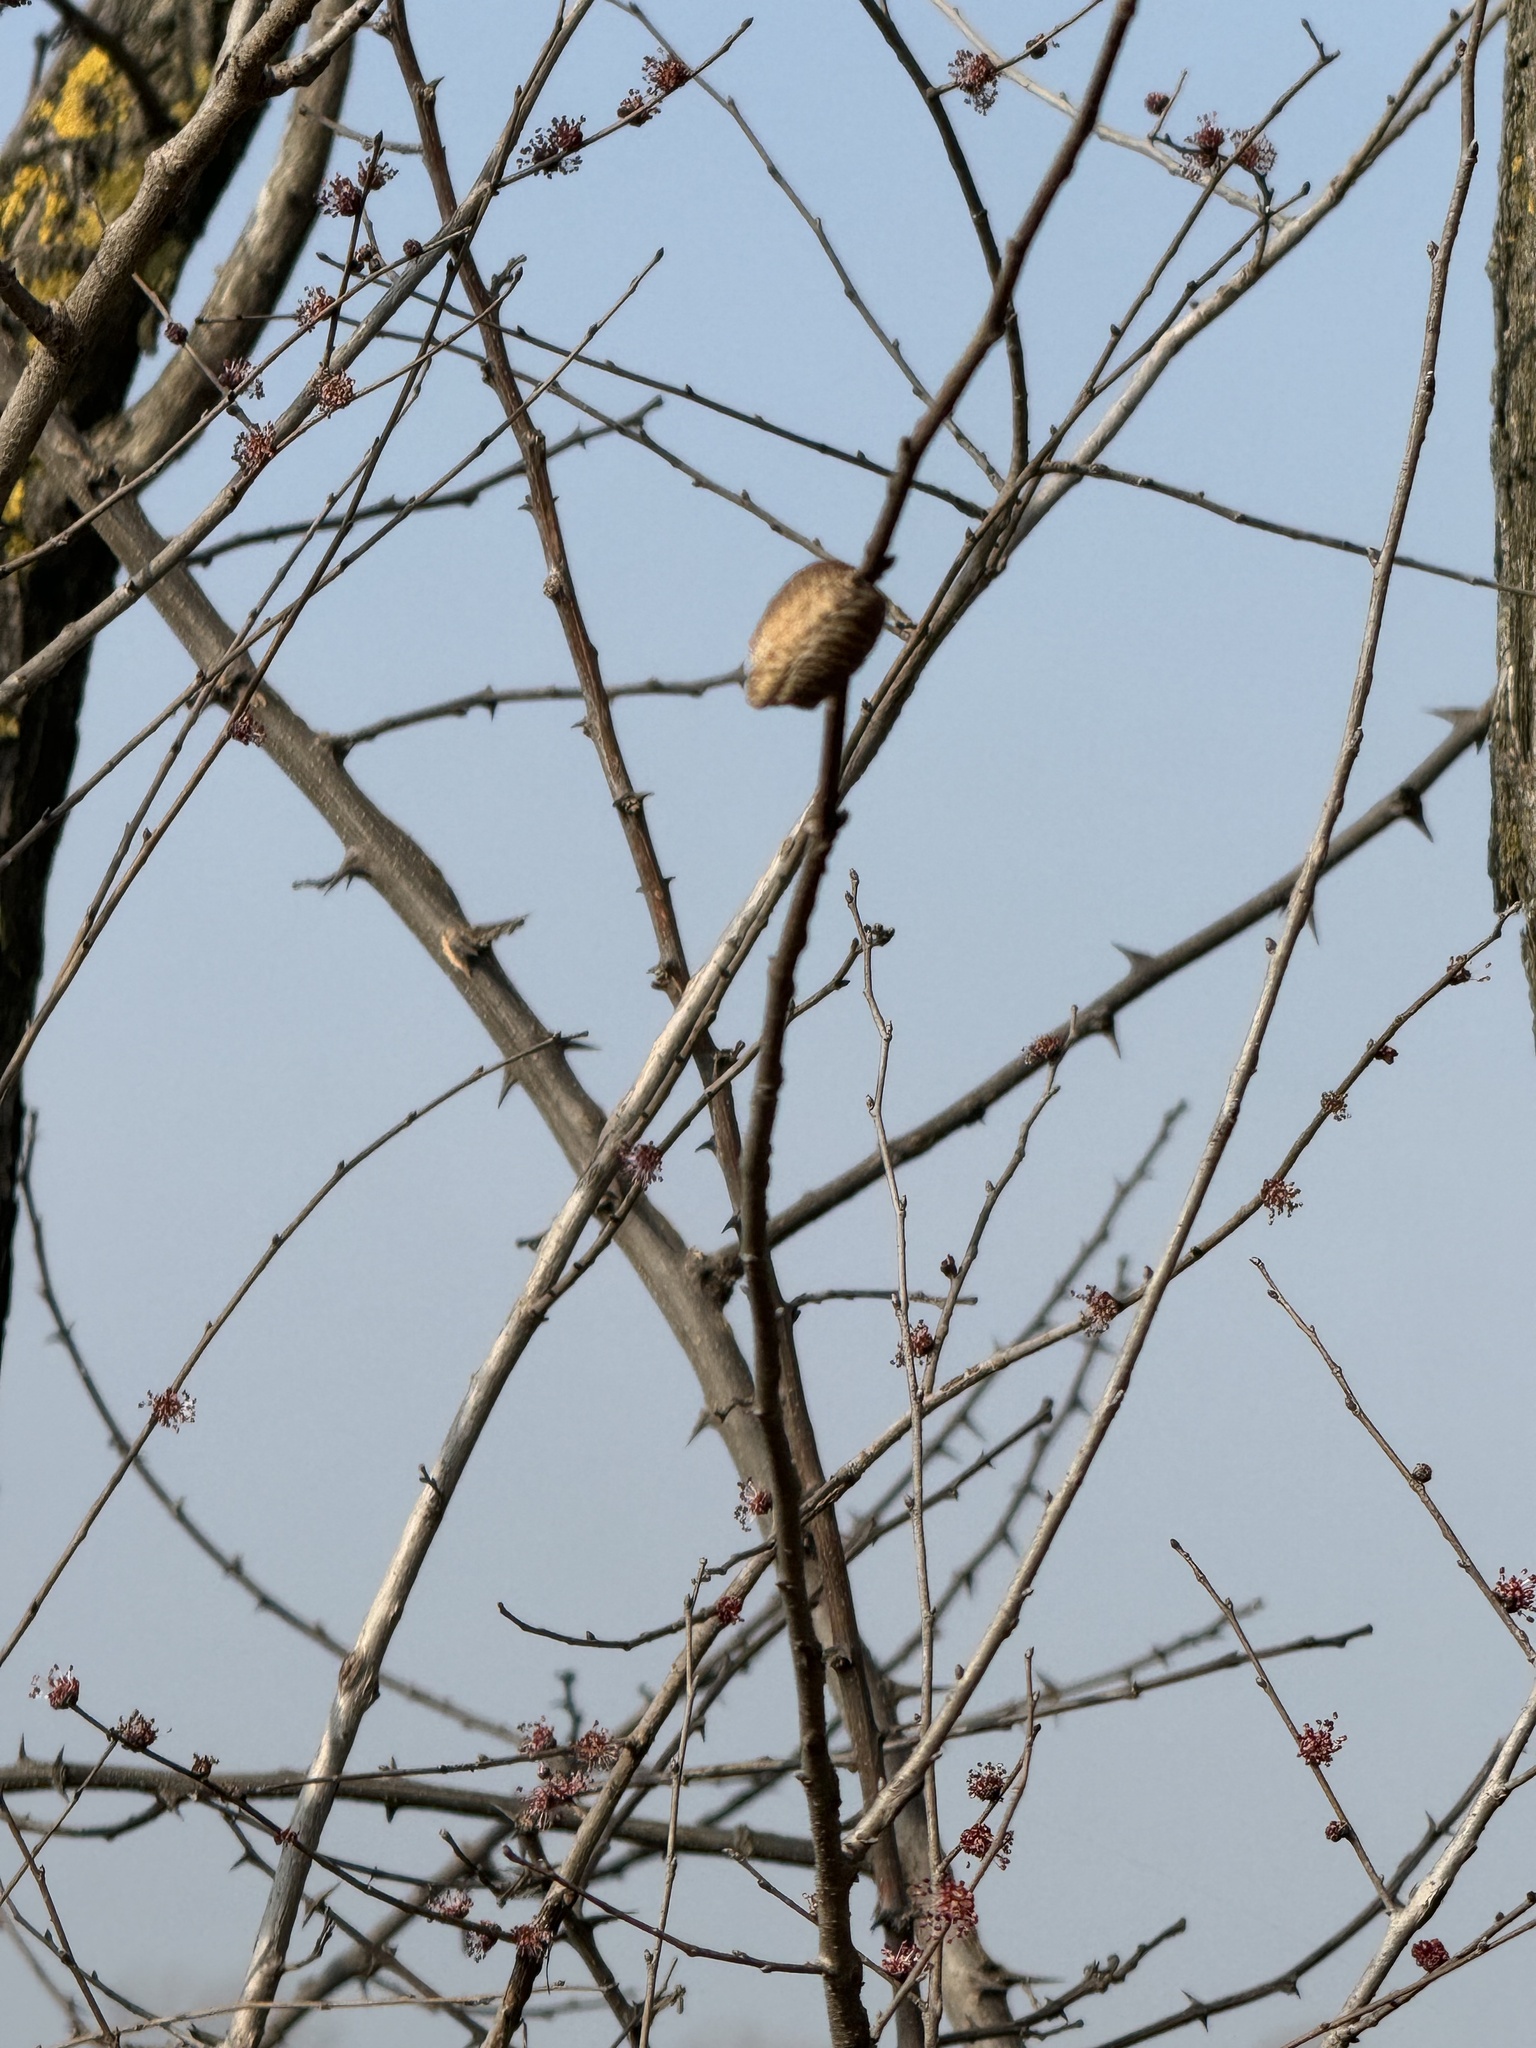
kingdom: Animalia
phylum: Arthropoda
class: Insecta
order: Mantodea
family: Mantidae
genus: Hierodula
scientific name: Hierodula transcaucasica
